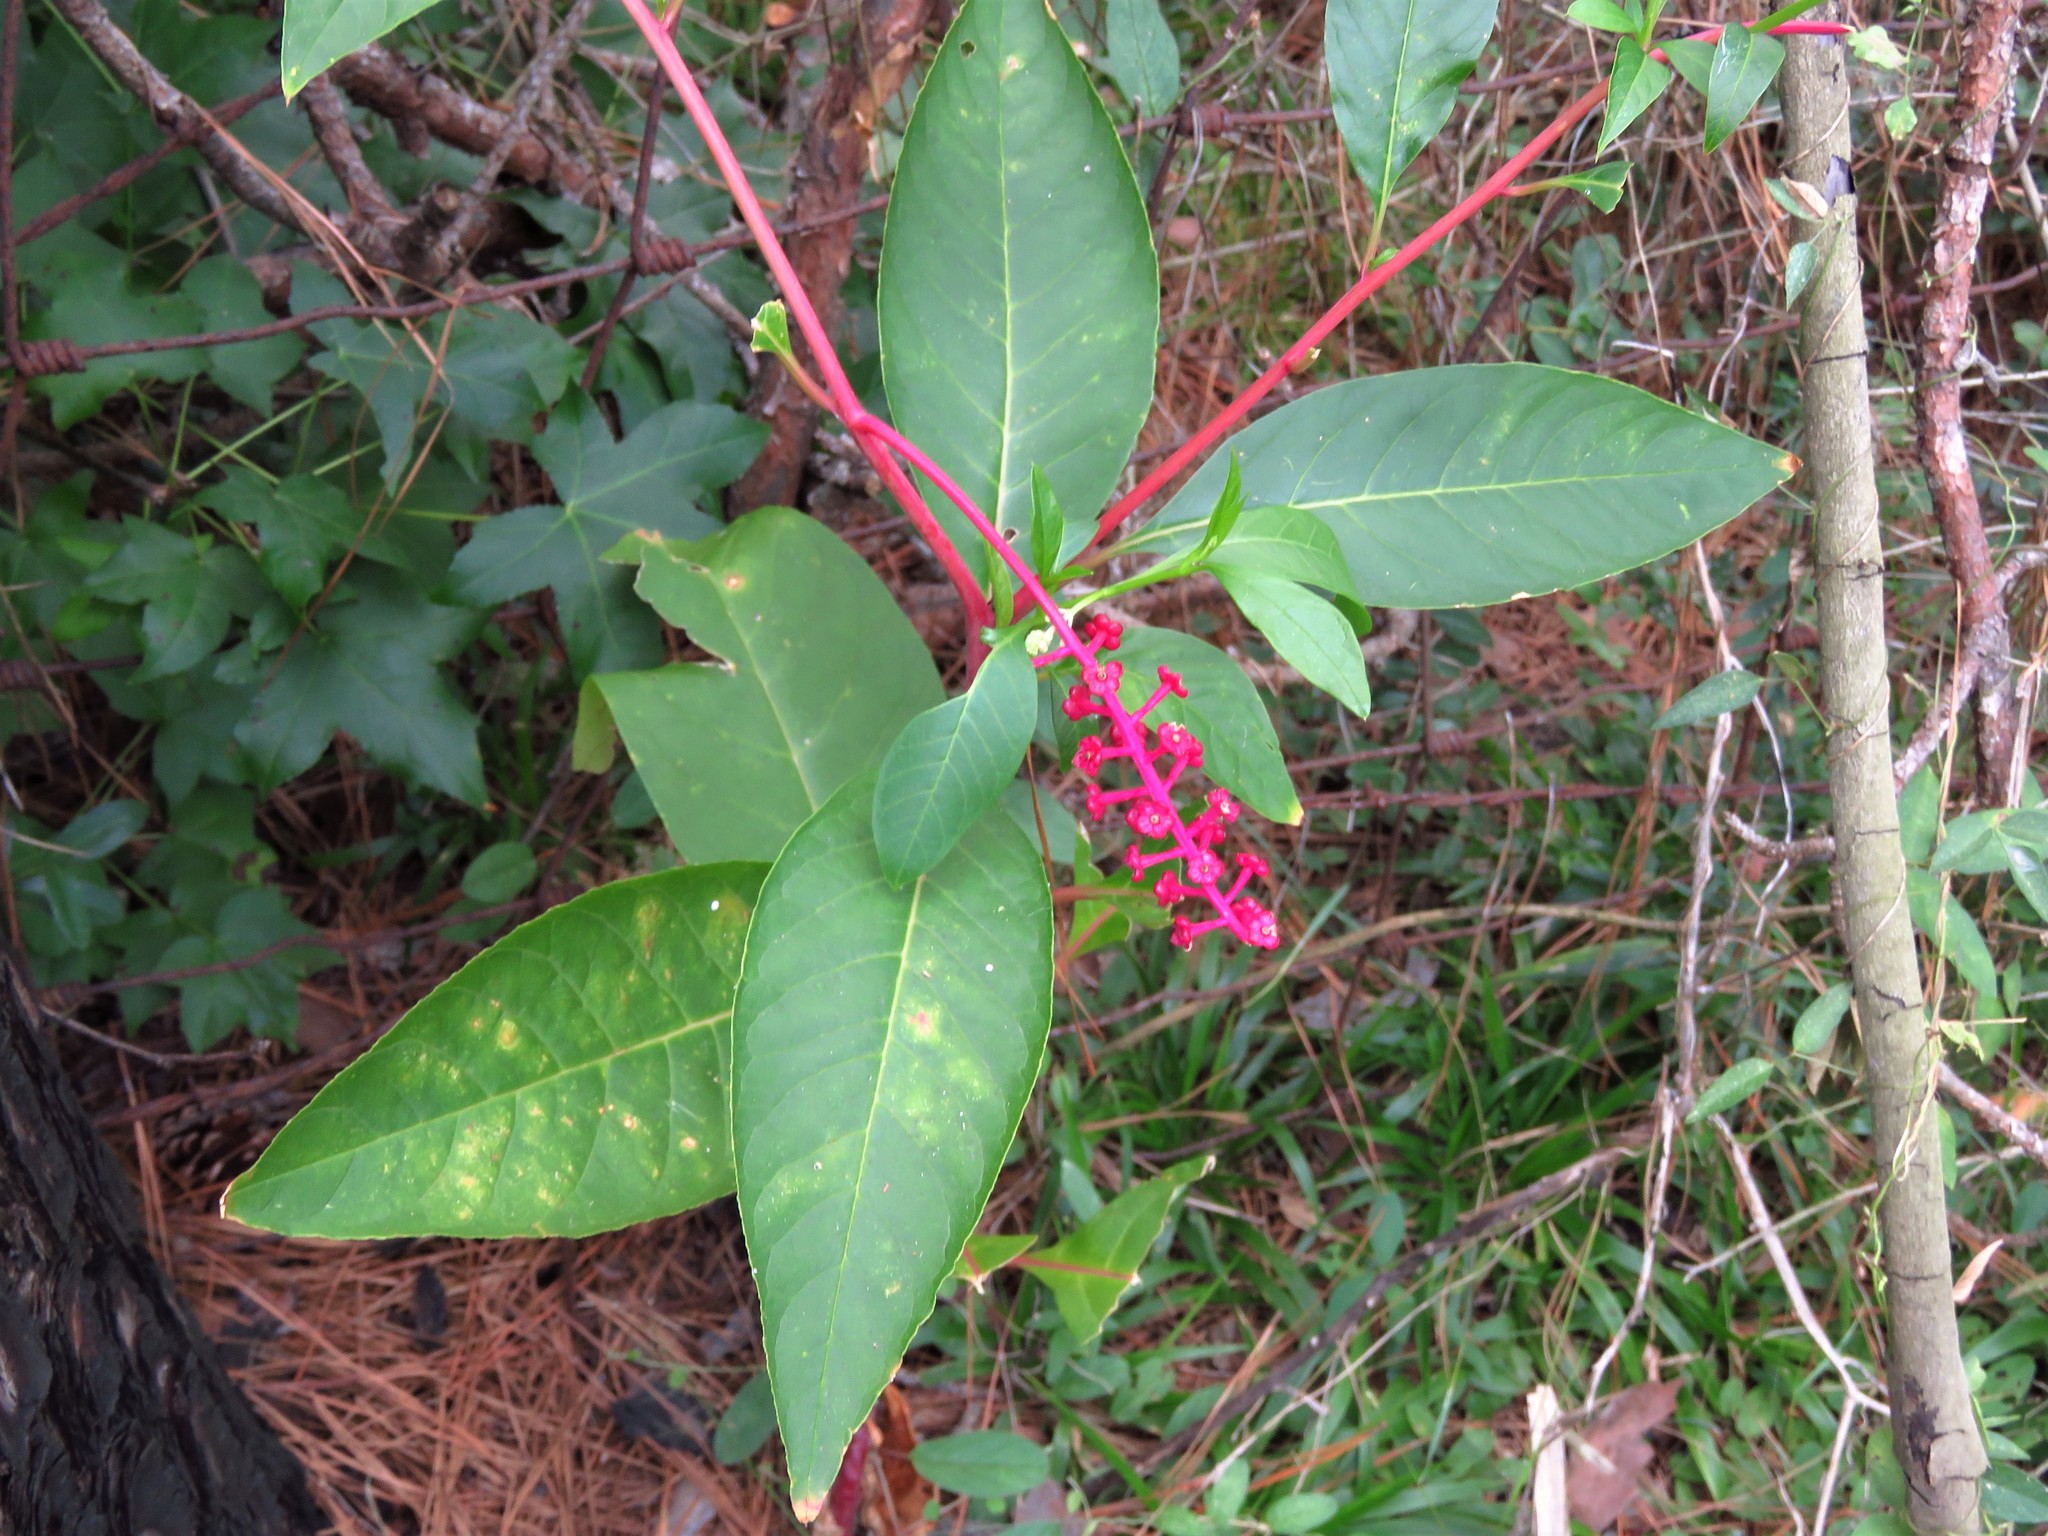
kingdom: Plantae
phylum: Tracheophyta
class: Magnoliopsida
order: Caryophyllales
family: Phytolaccaceae
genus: Phytolacca
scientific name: Phytolacca americana
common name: American pokeweed
